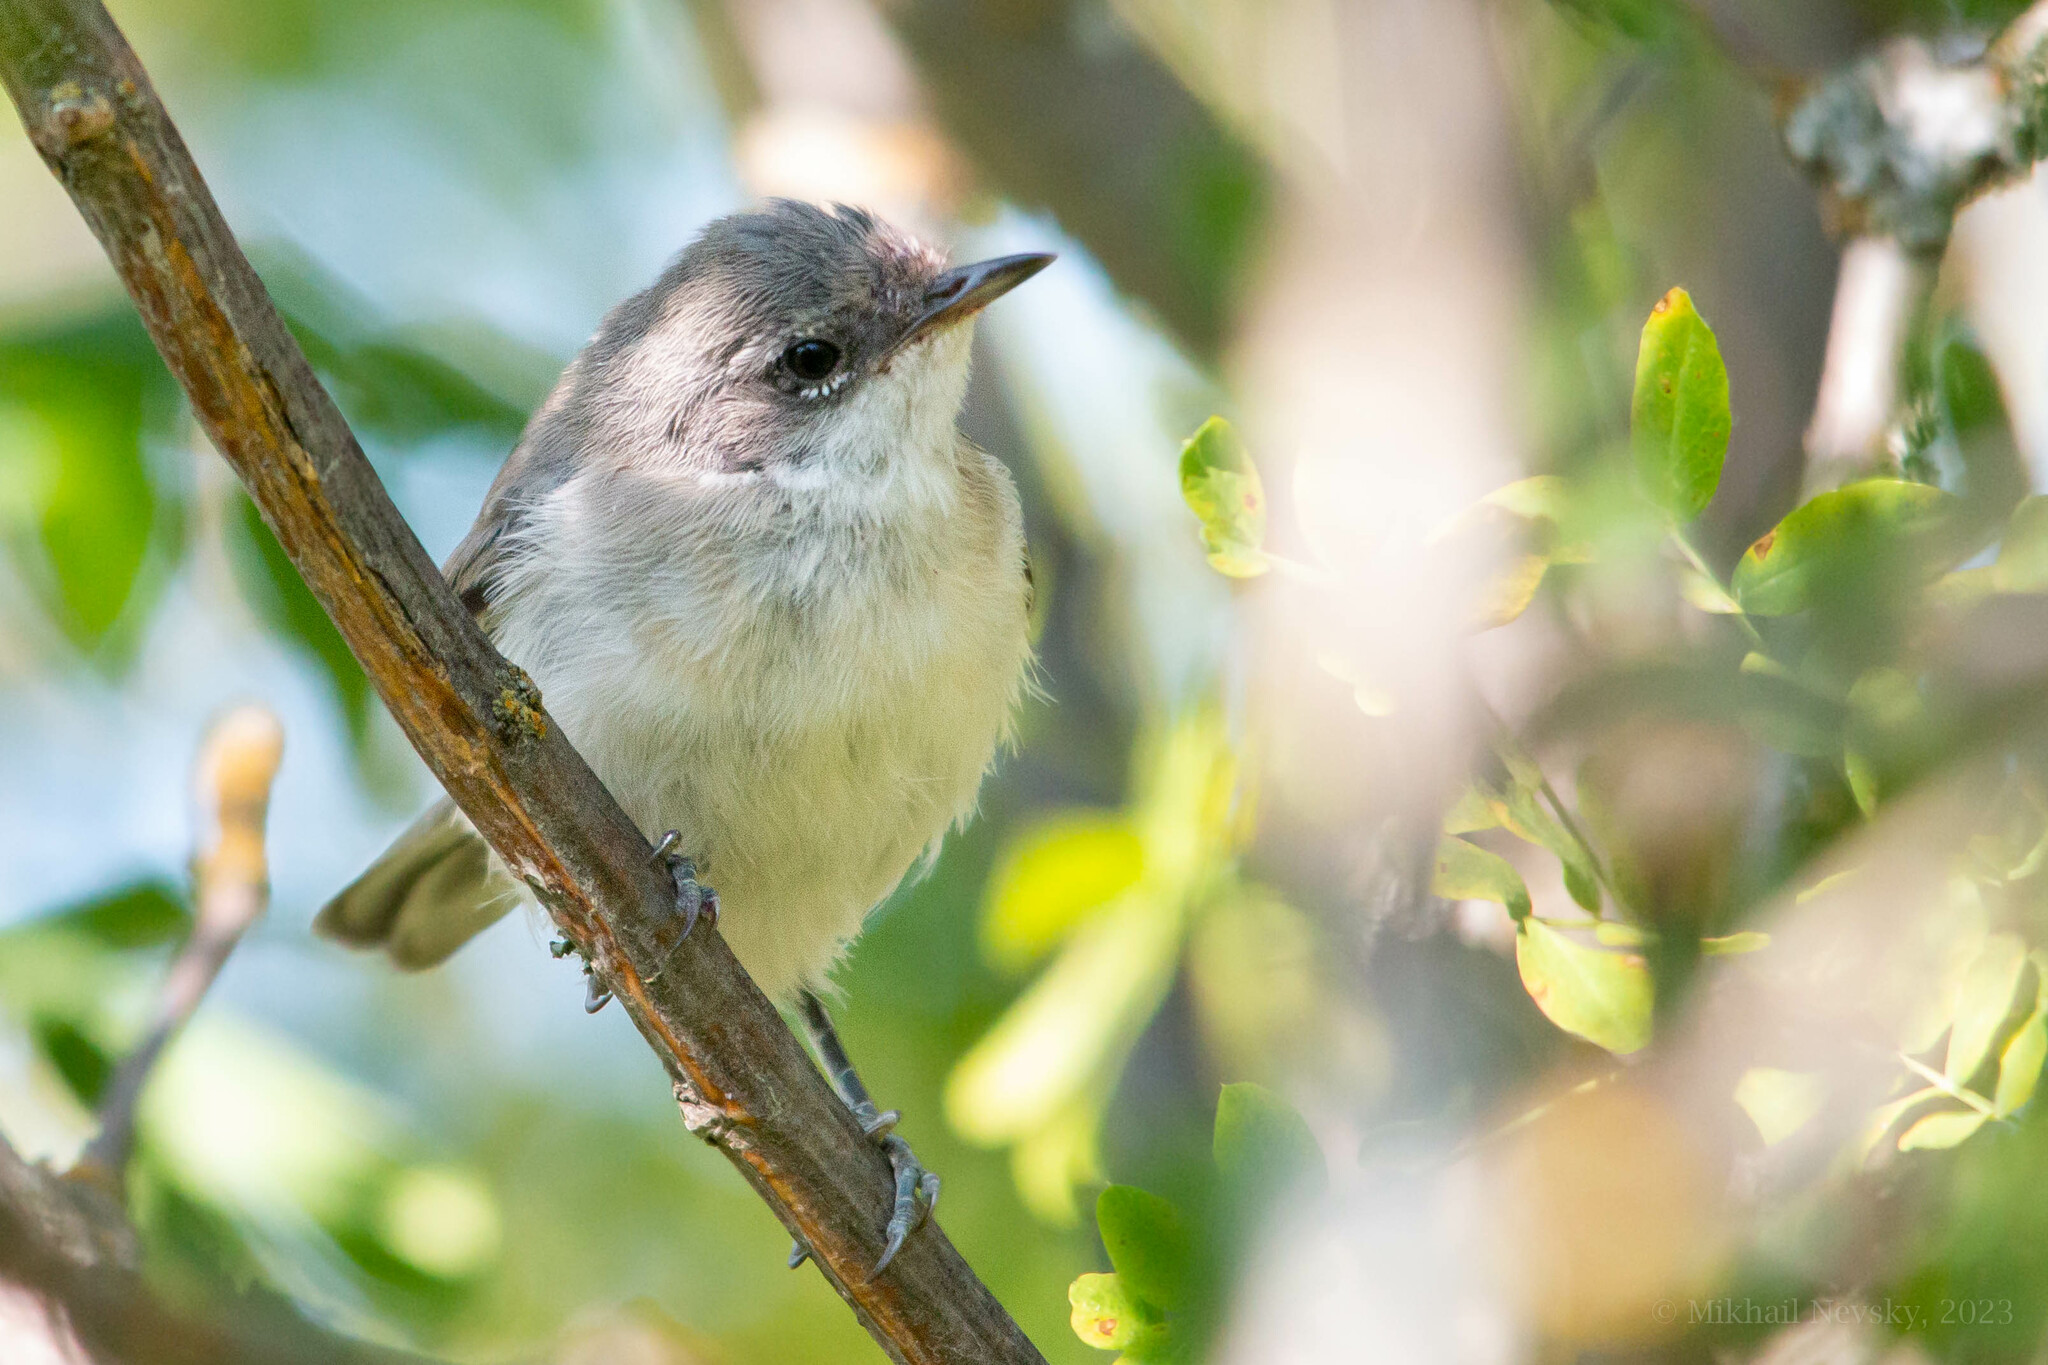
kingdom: Animalia
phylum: Chordata
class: Aves
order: Passeriformes
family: Sylviidae
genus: Sylvia
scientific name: Sylvia curruca
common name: Lesser whitethroat
